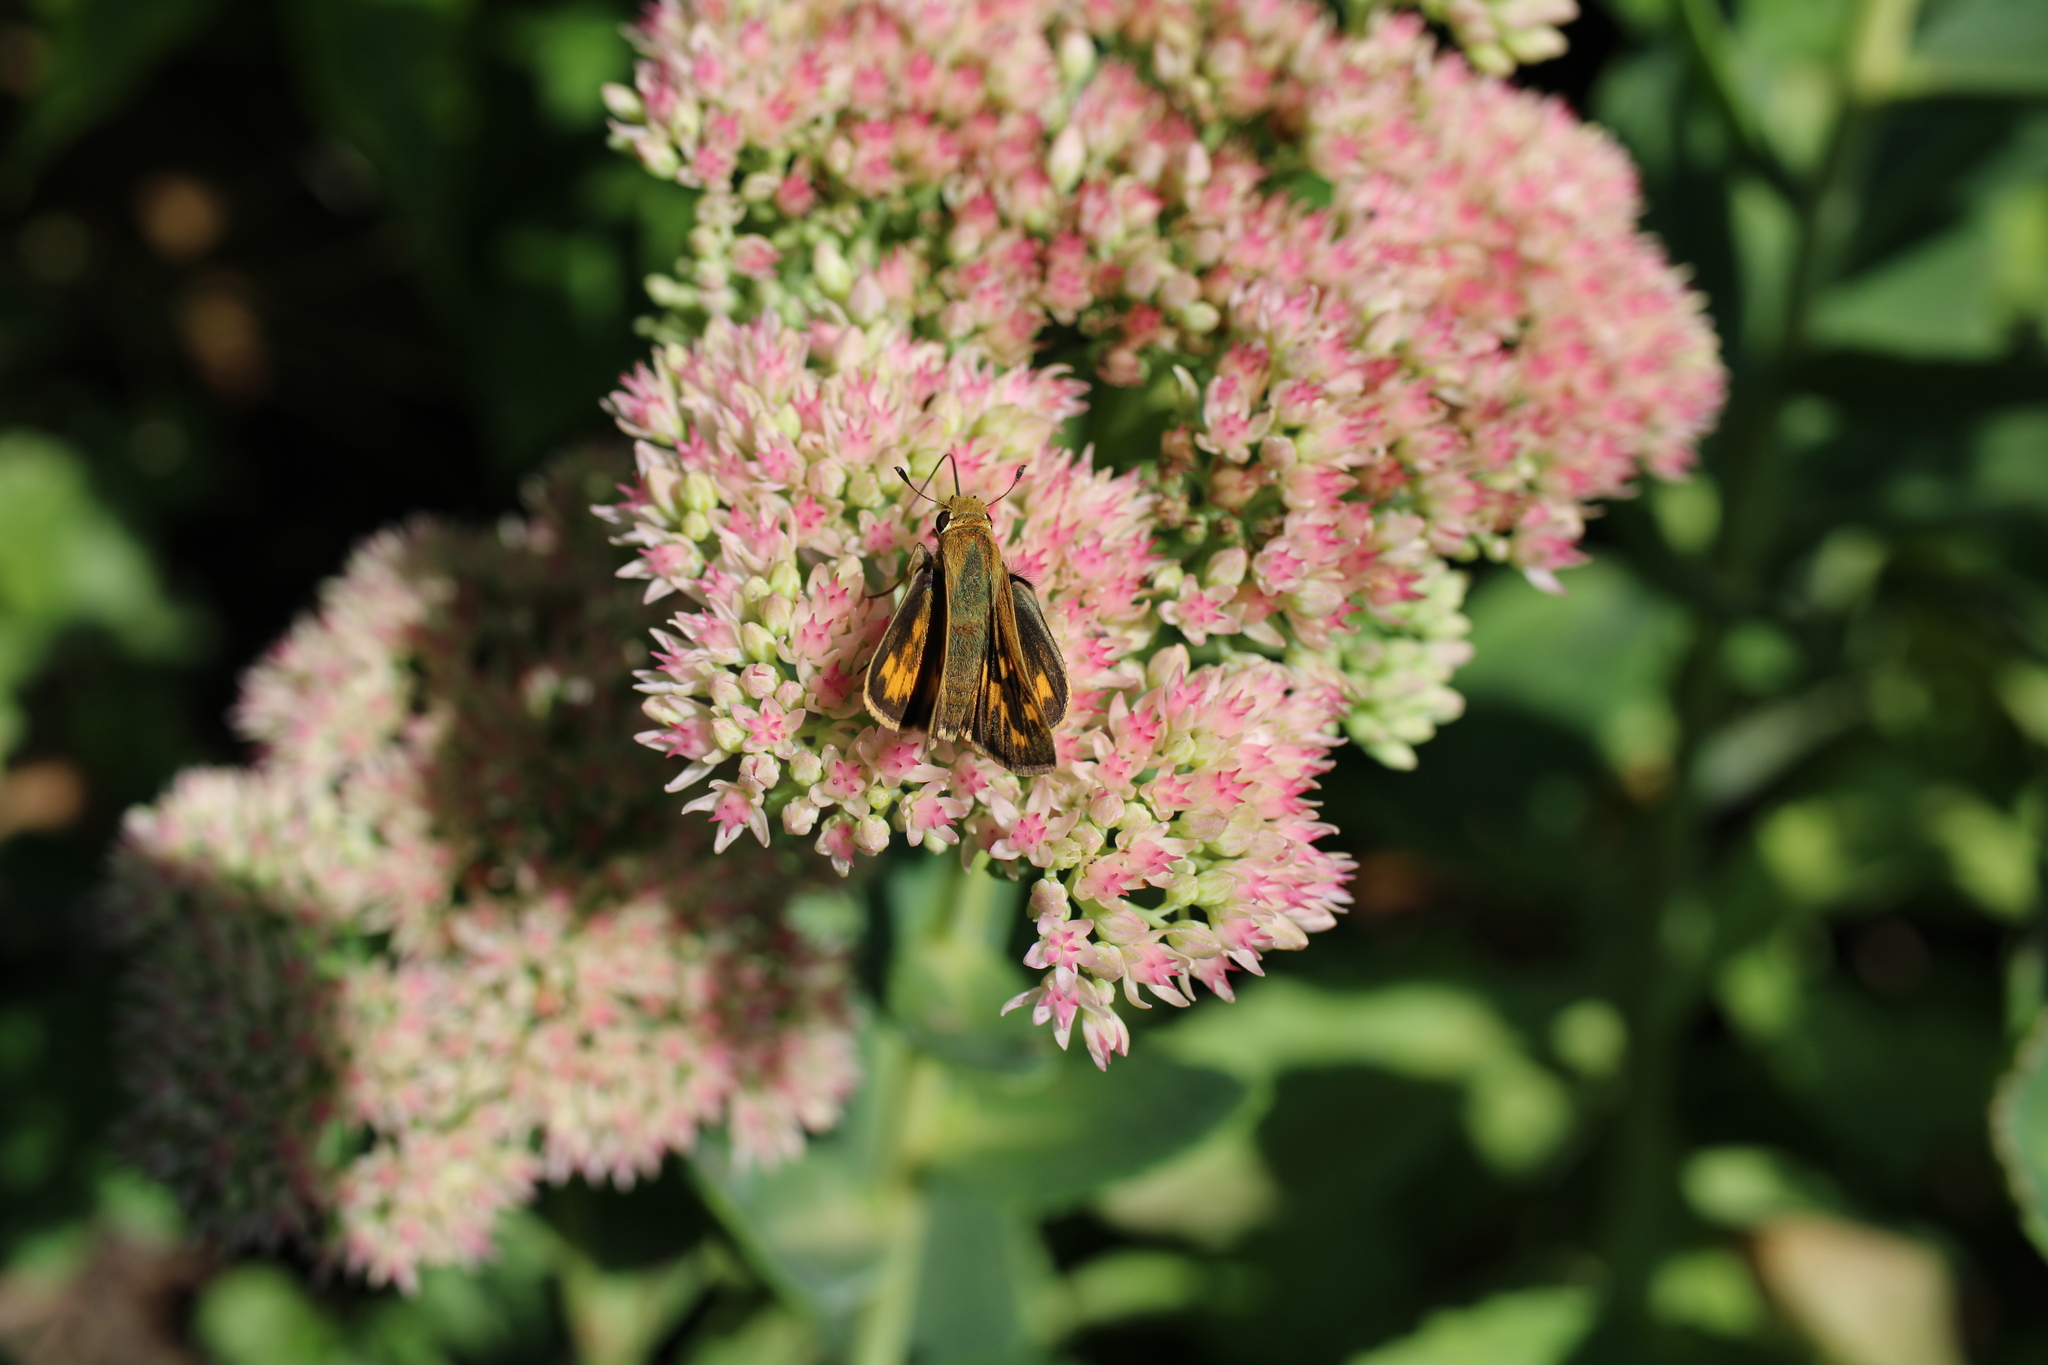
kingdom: Animalia
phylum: Arthropoda
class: Insecta
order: Lepidoptera
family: Hesperiidae
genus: Hylephila
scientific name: Hylephila phyleus
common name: Fiery skipper
